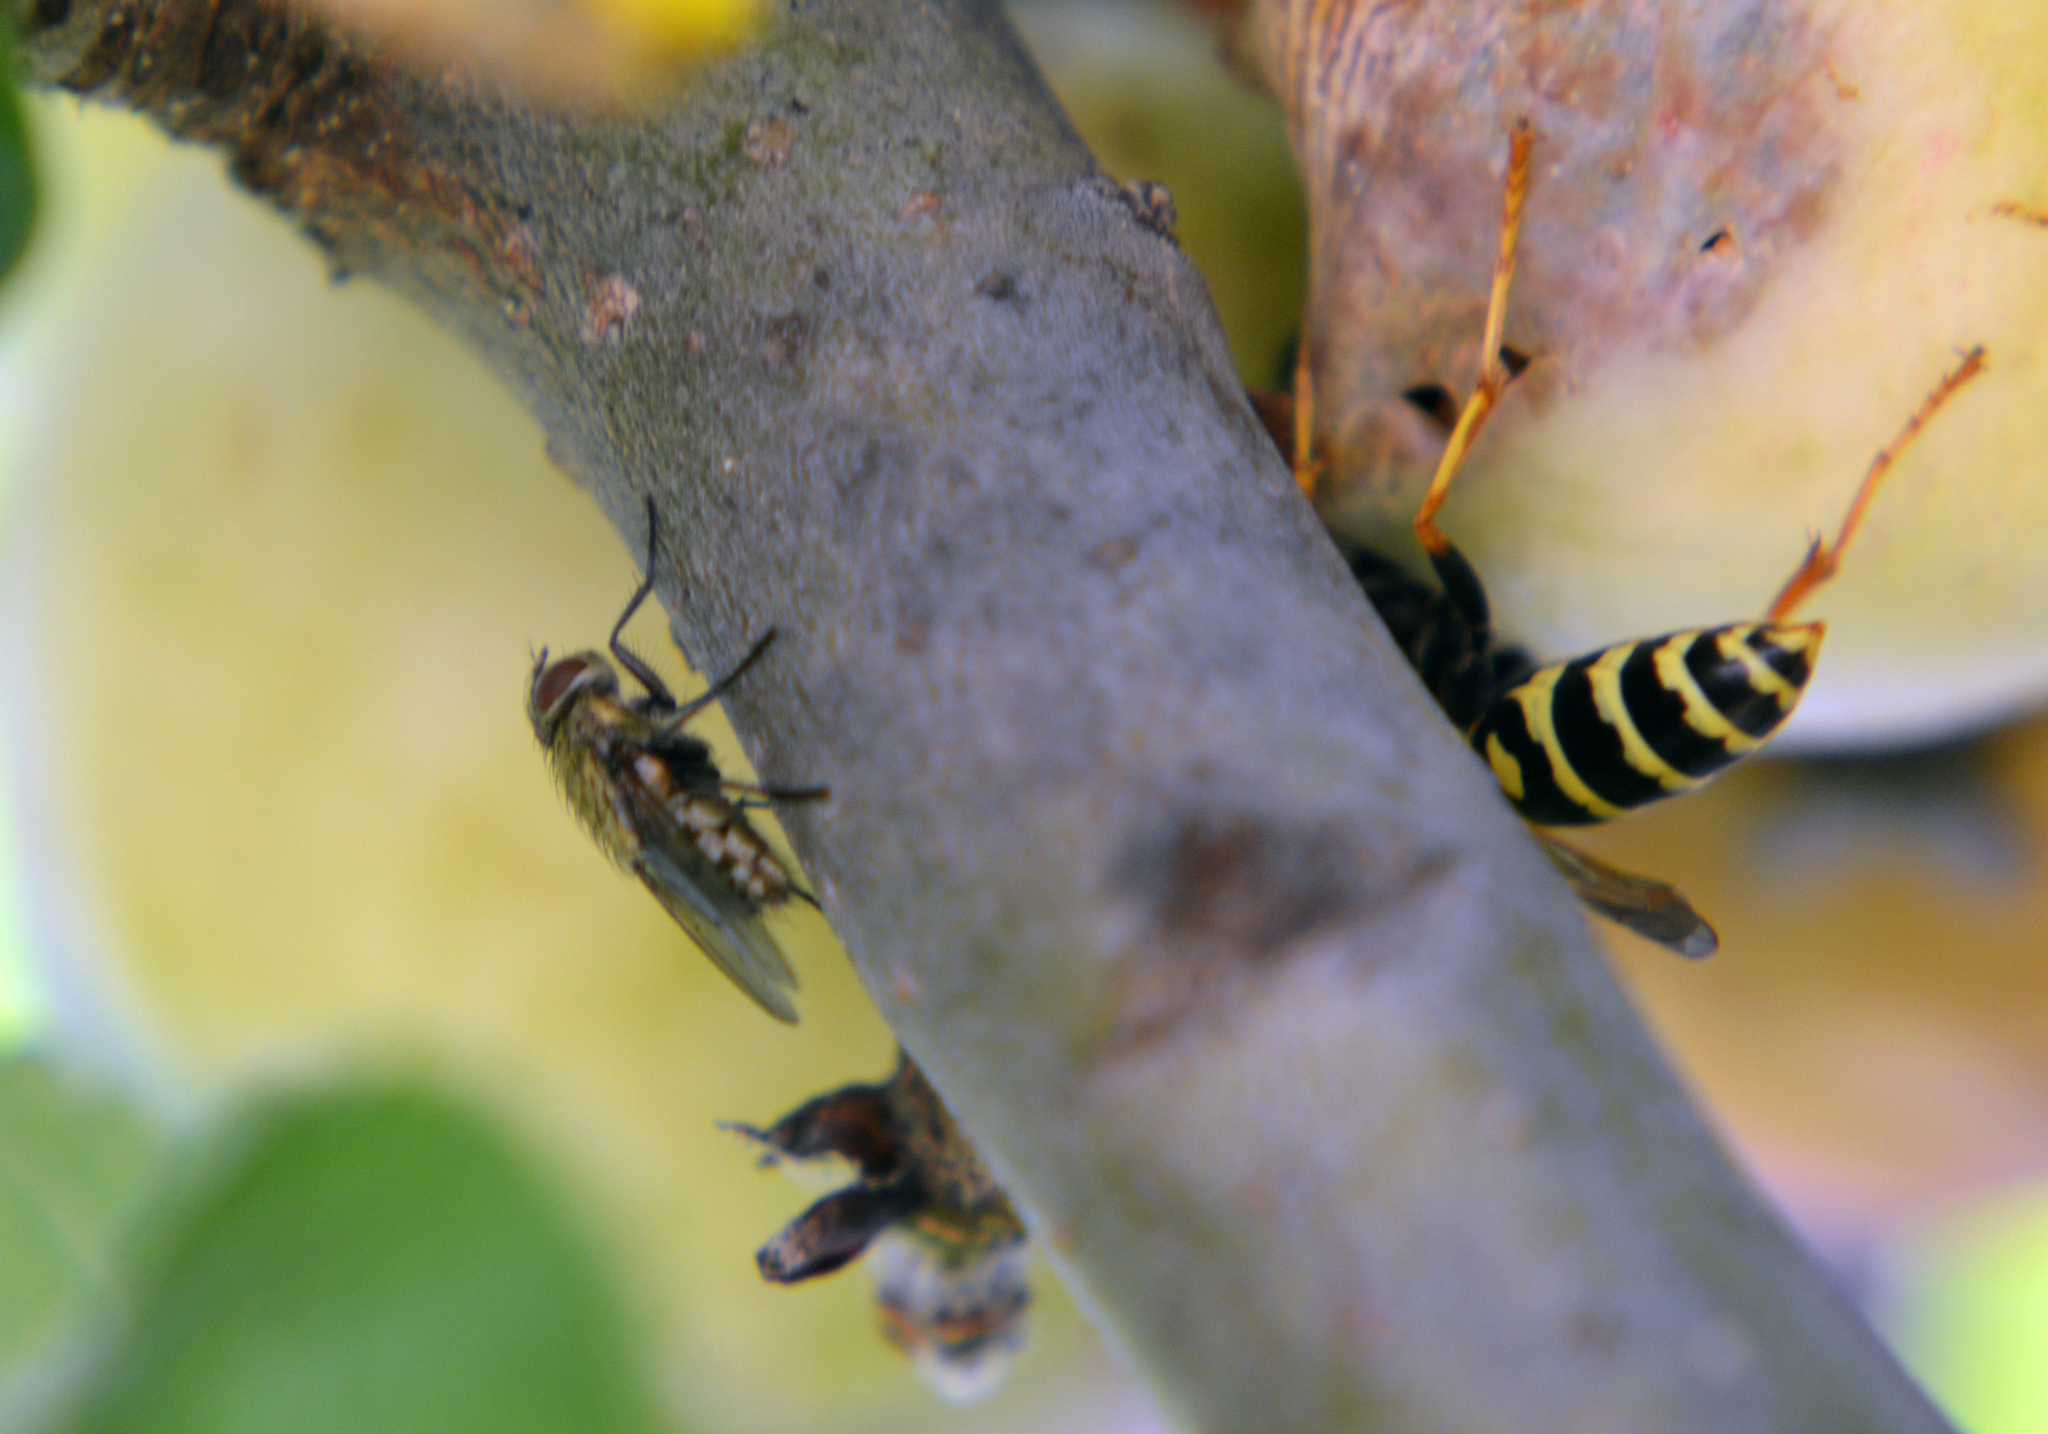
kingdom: Animalia
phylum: Arthropoda
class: Insecta
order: Diptera
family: Polleniidae
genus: Pollenia
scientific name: Pollenia
